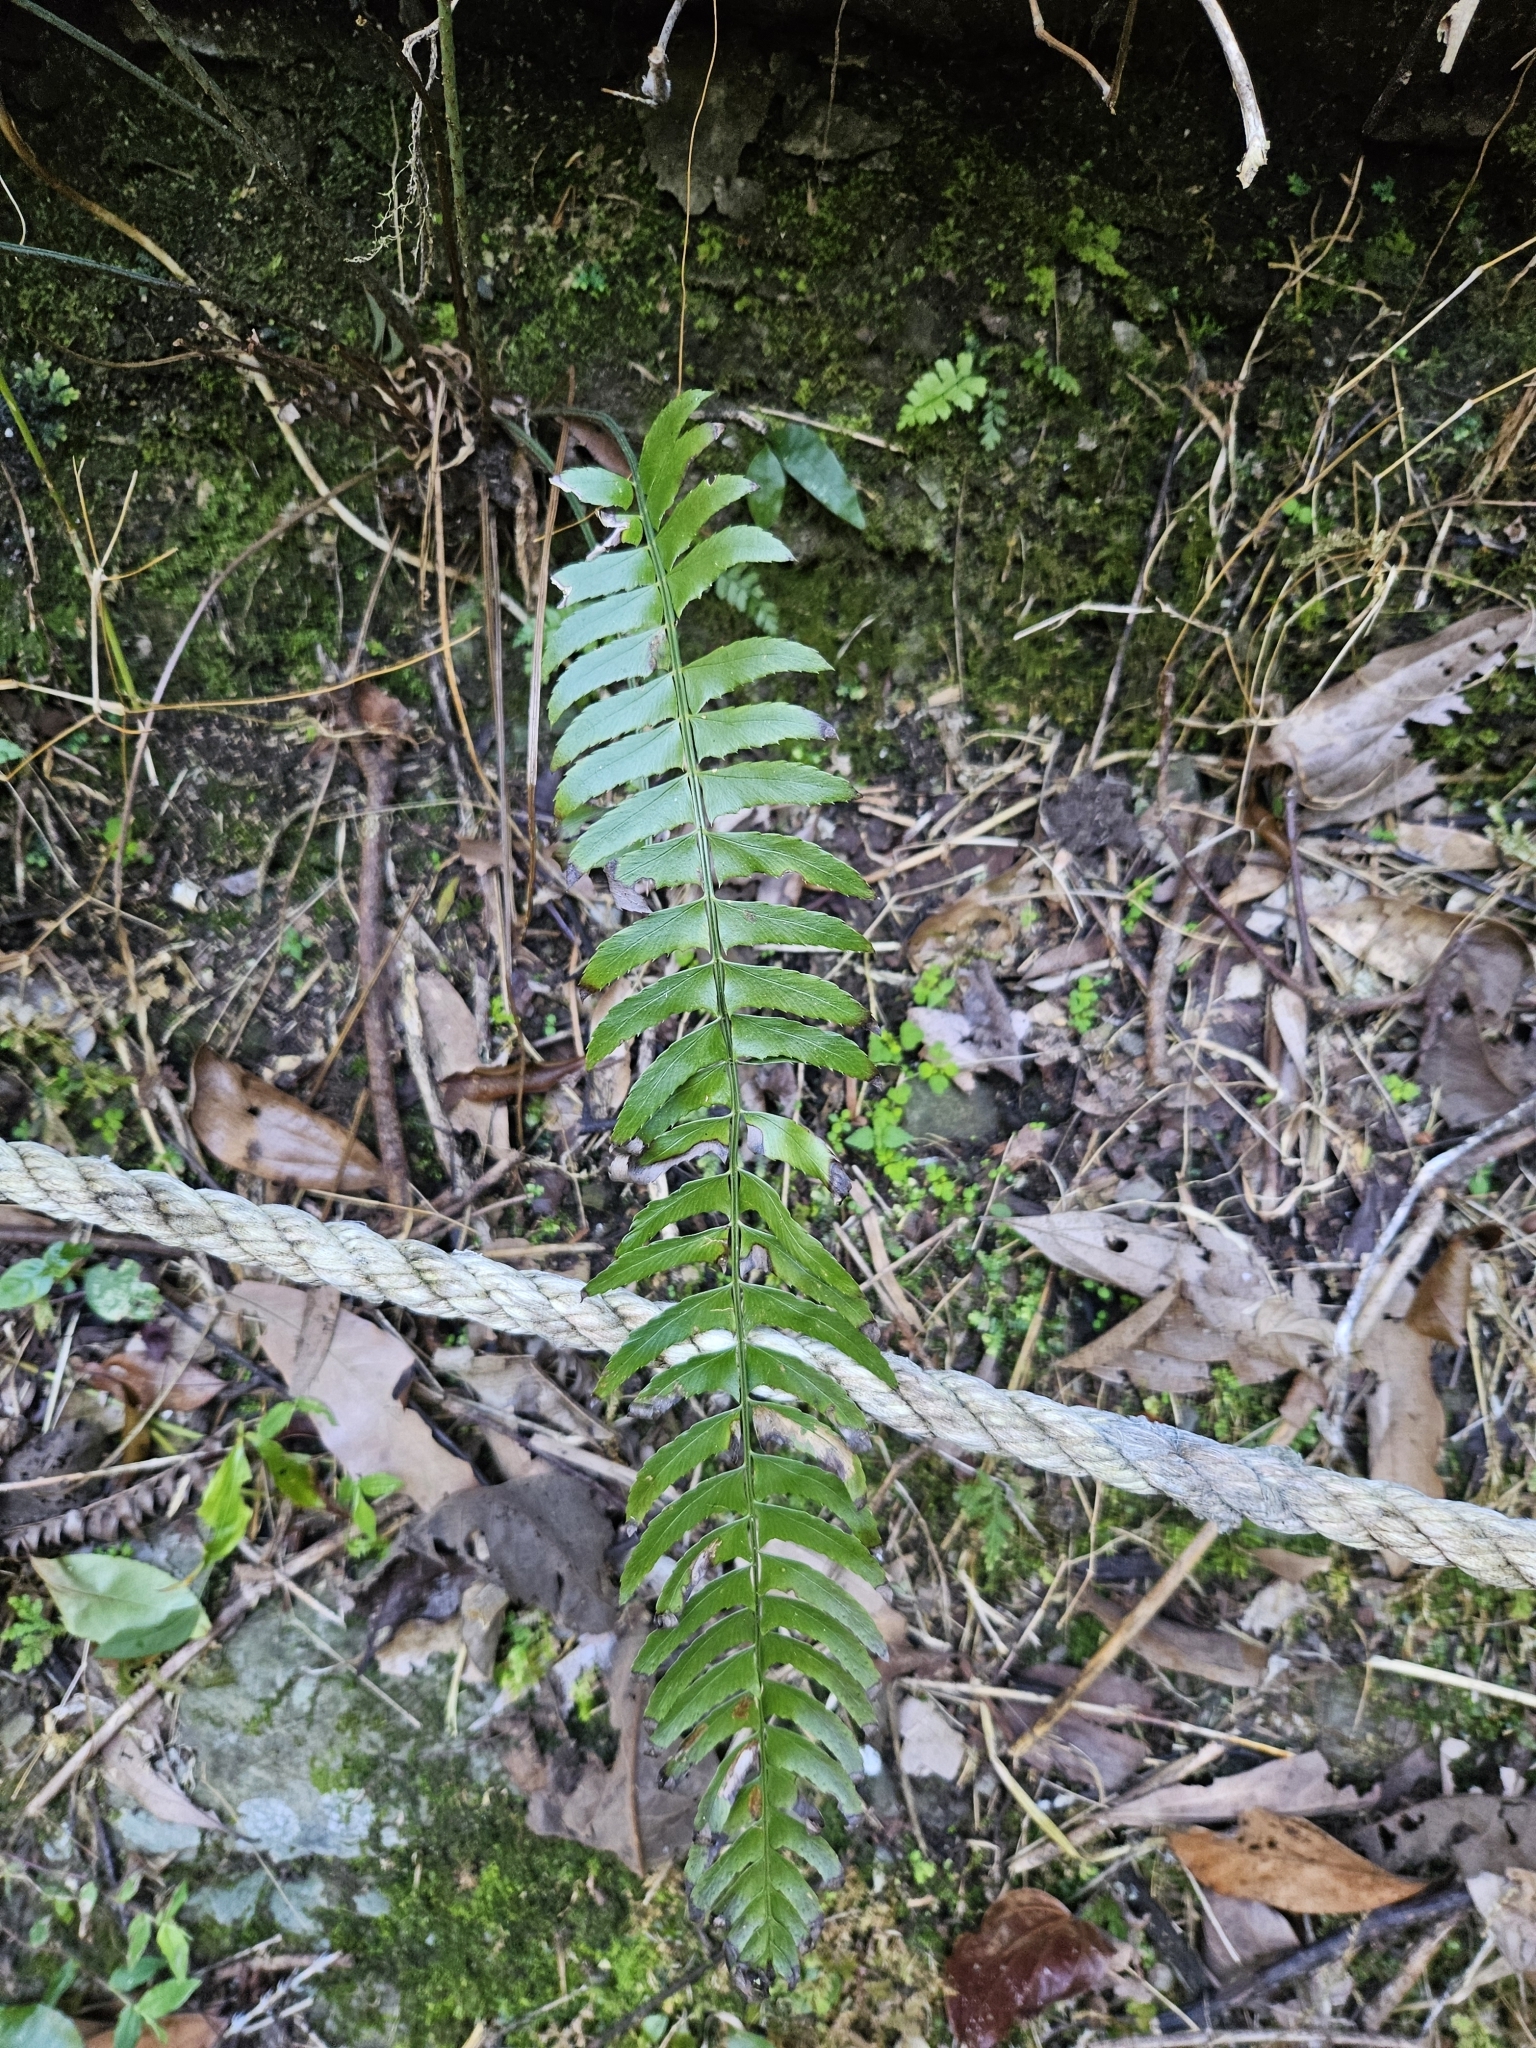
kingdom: Plantae
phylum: Tracheophyta
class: Polypodiopsida
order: Polypodiales
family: Dryopteridaceae
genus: Polystichum
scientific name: Polystichum acutidens
